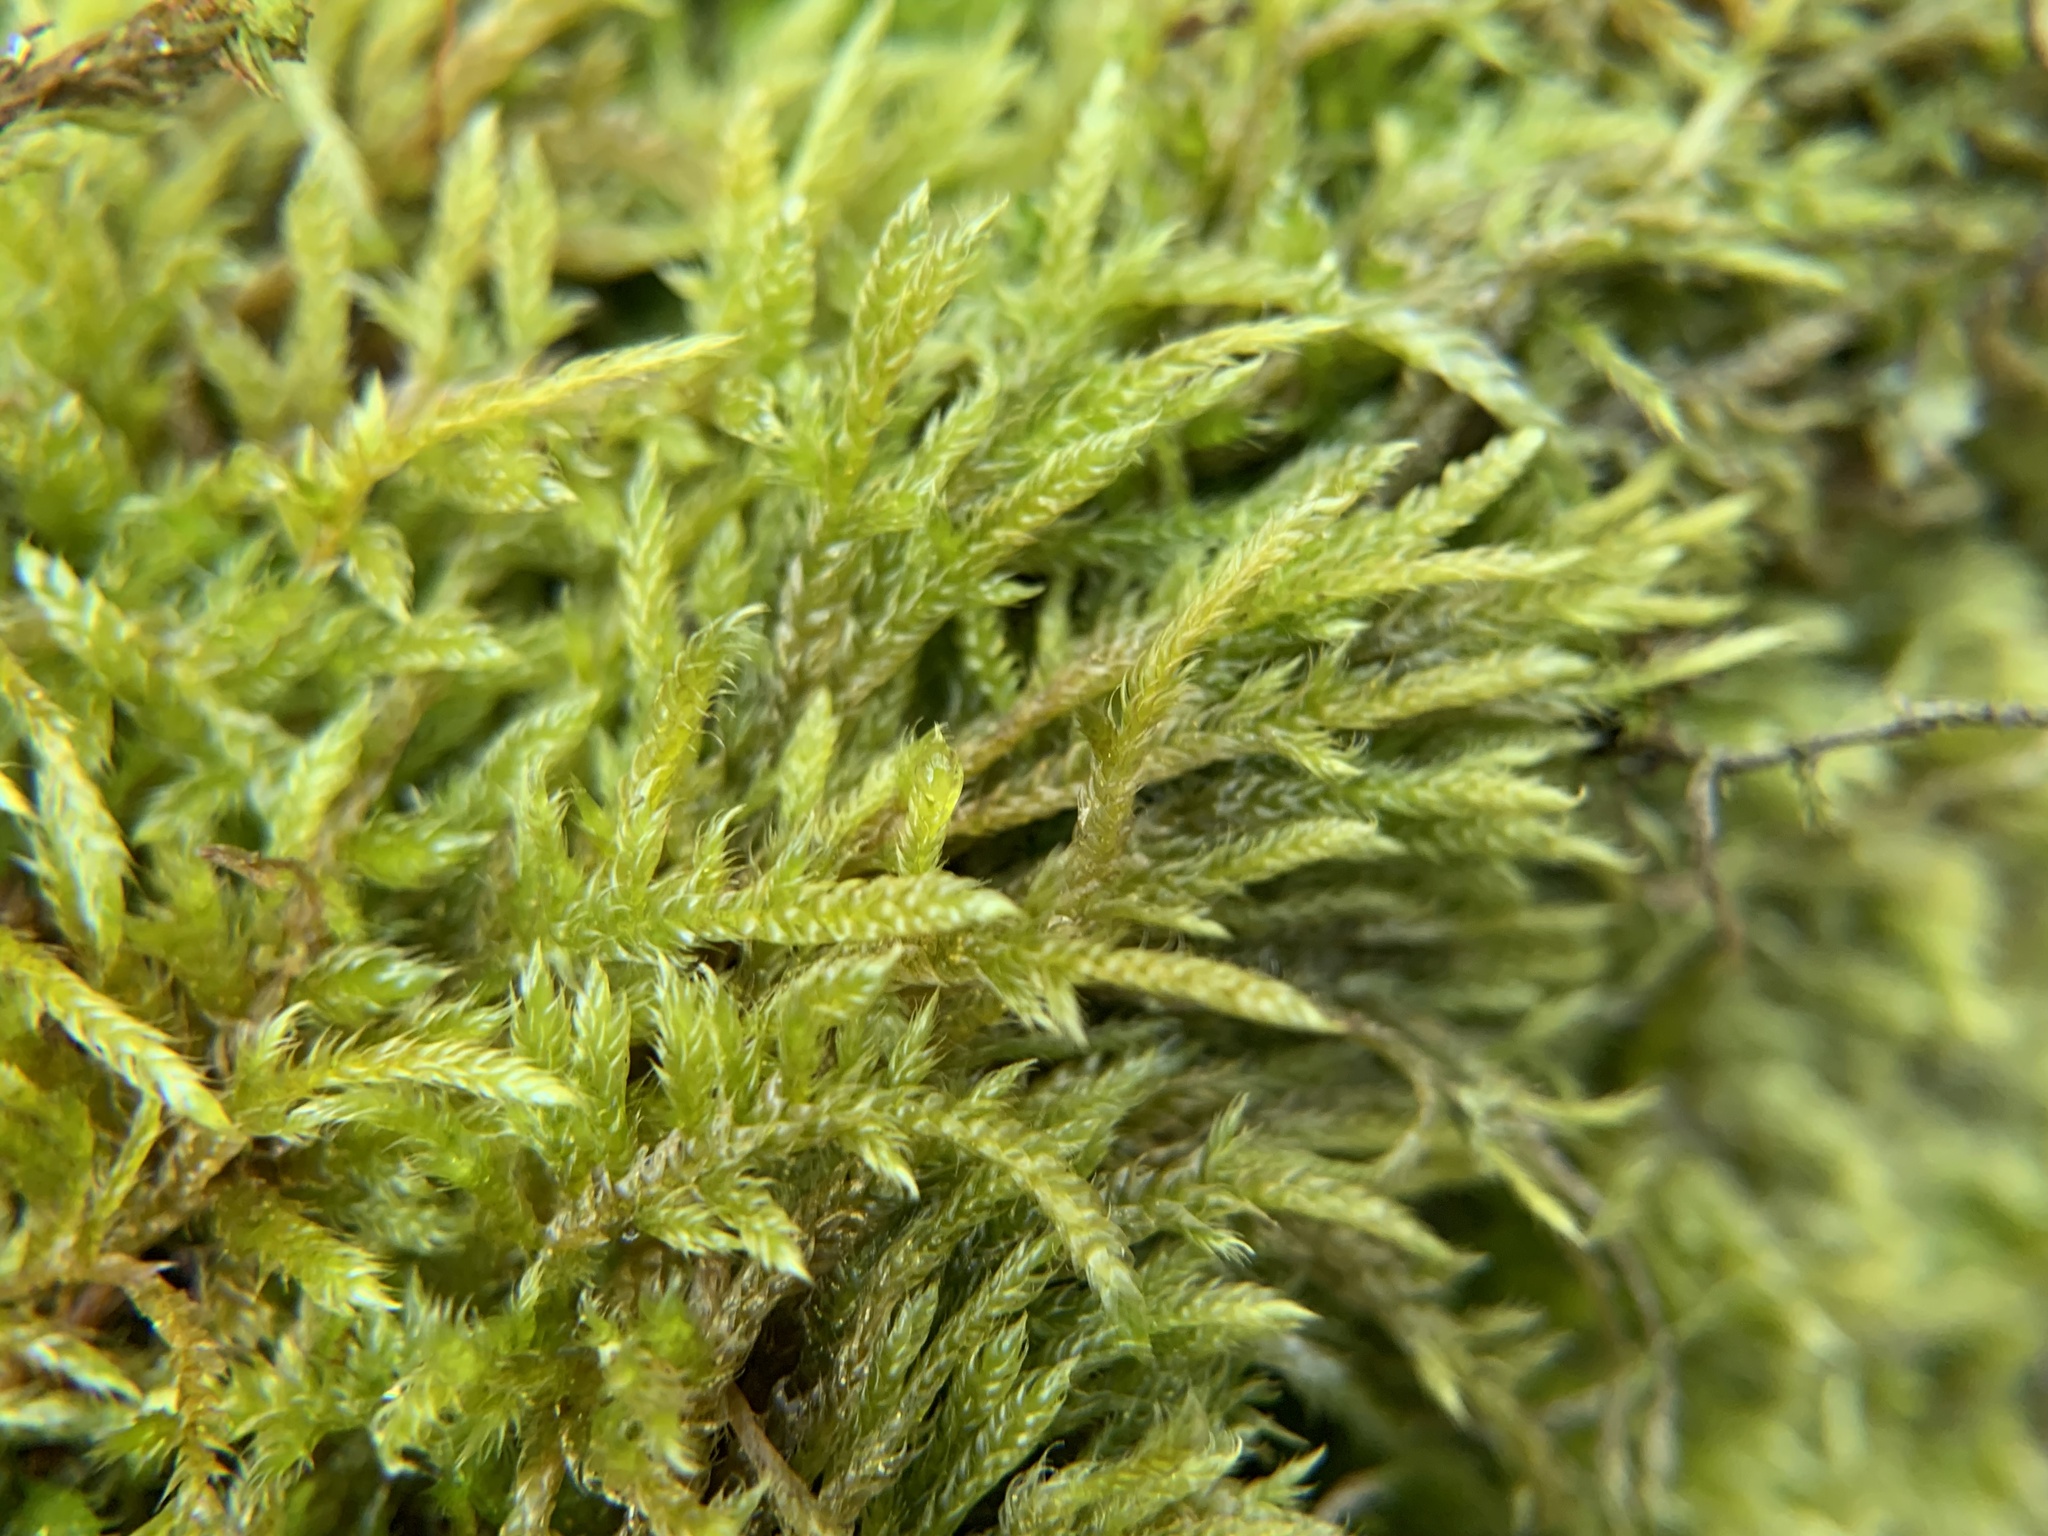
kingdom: Plantae
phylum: Bryophyta
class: Bryopsida
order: Hypnales
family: Hypnaceae
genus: Hypnum
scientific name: Hypnum cupressiforme
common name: Cypress-leaved plait-moss
